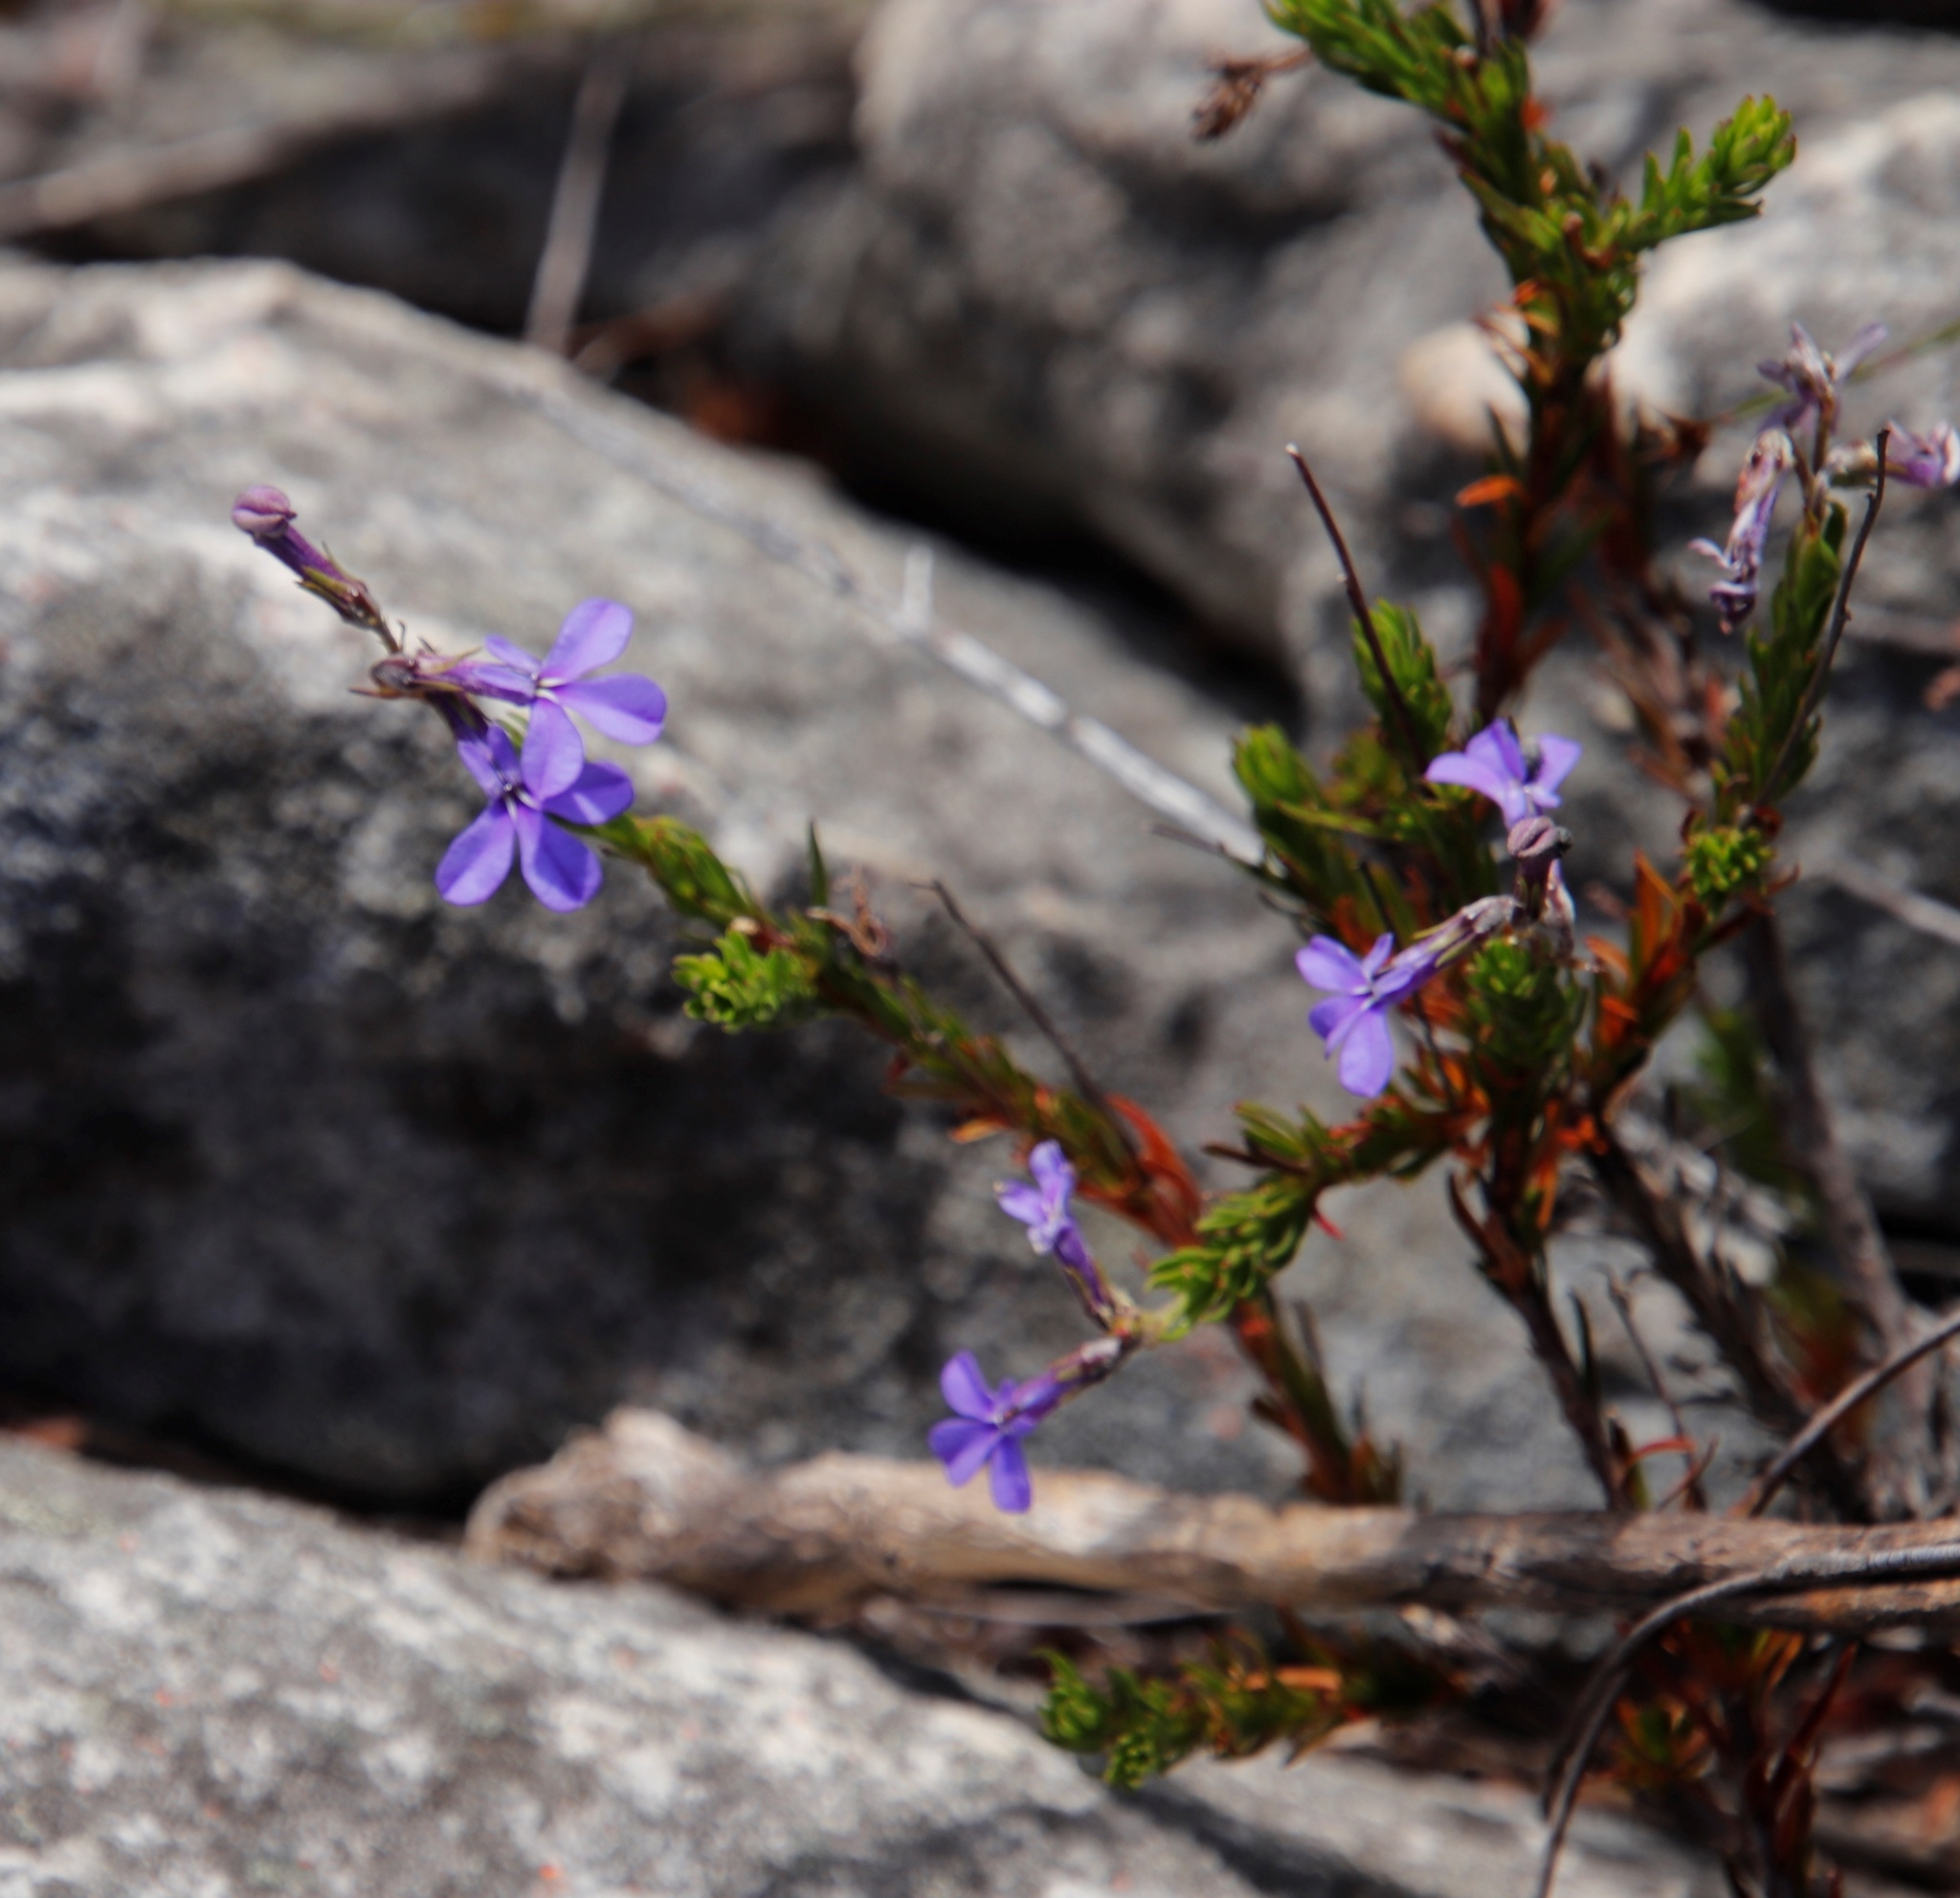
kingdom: Plantae
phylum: Tracheophyta
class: Magnoliopsida
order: Asterales
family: Campanulaceae
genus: Lobelia
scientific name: Lobelia pinifolia
